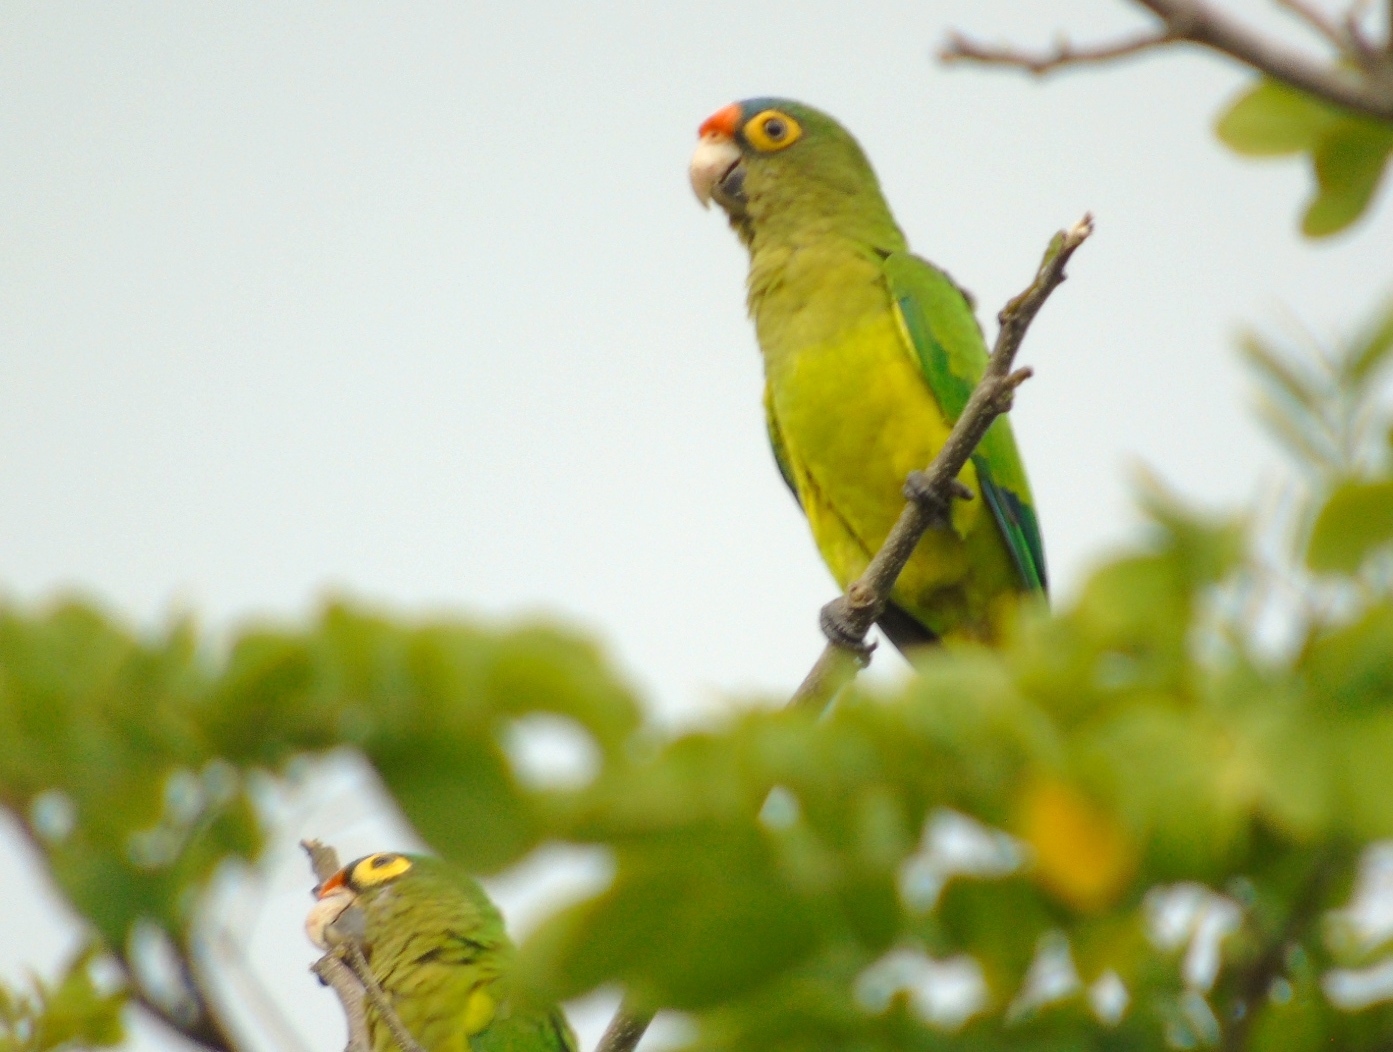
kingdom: Animalia
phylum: Chordata
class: Aves
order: Psittaciformes
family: Psittacidae
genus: Aratinga
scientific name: Aratinga canicularis
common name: Orange-fronted parakeet
